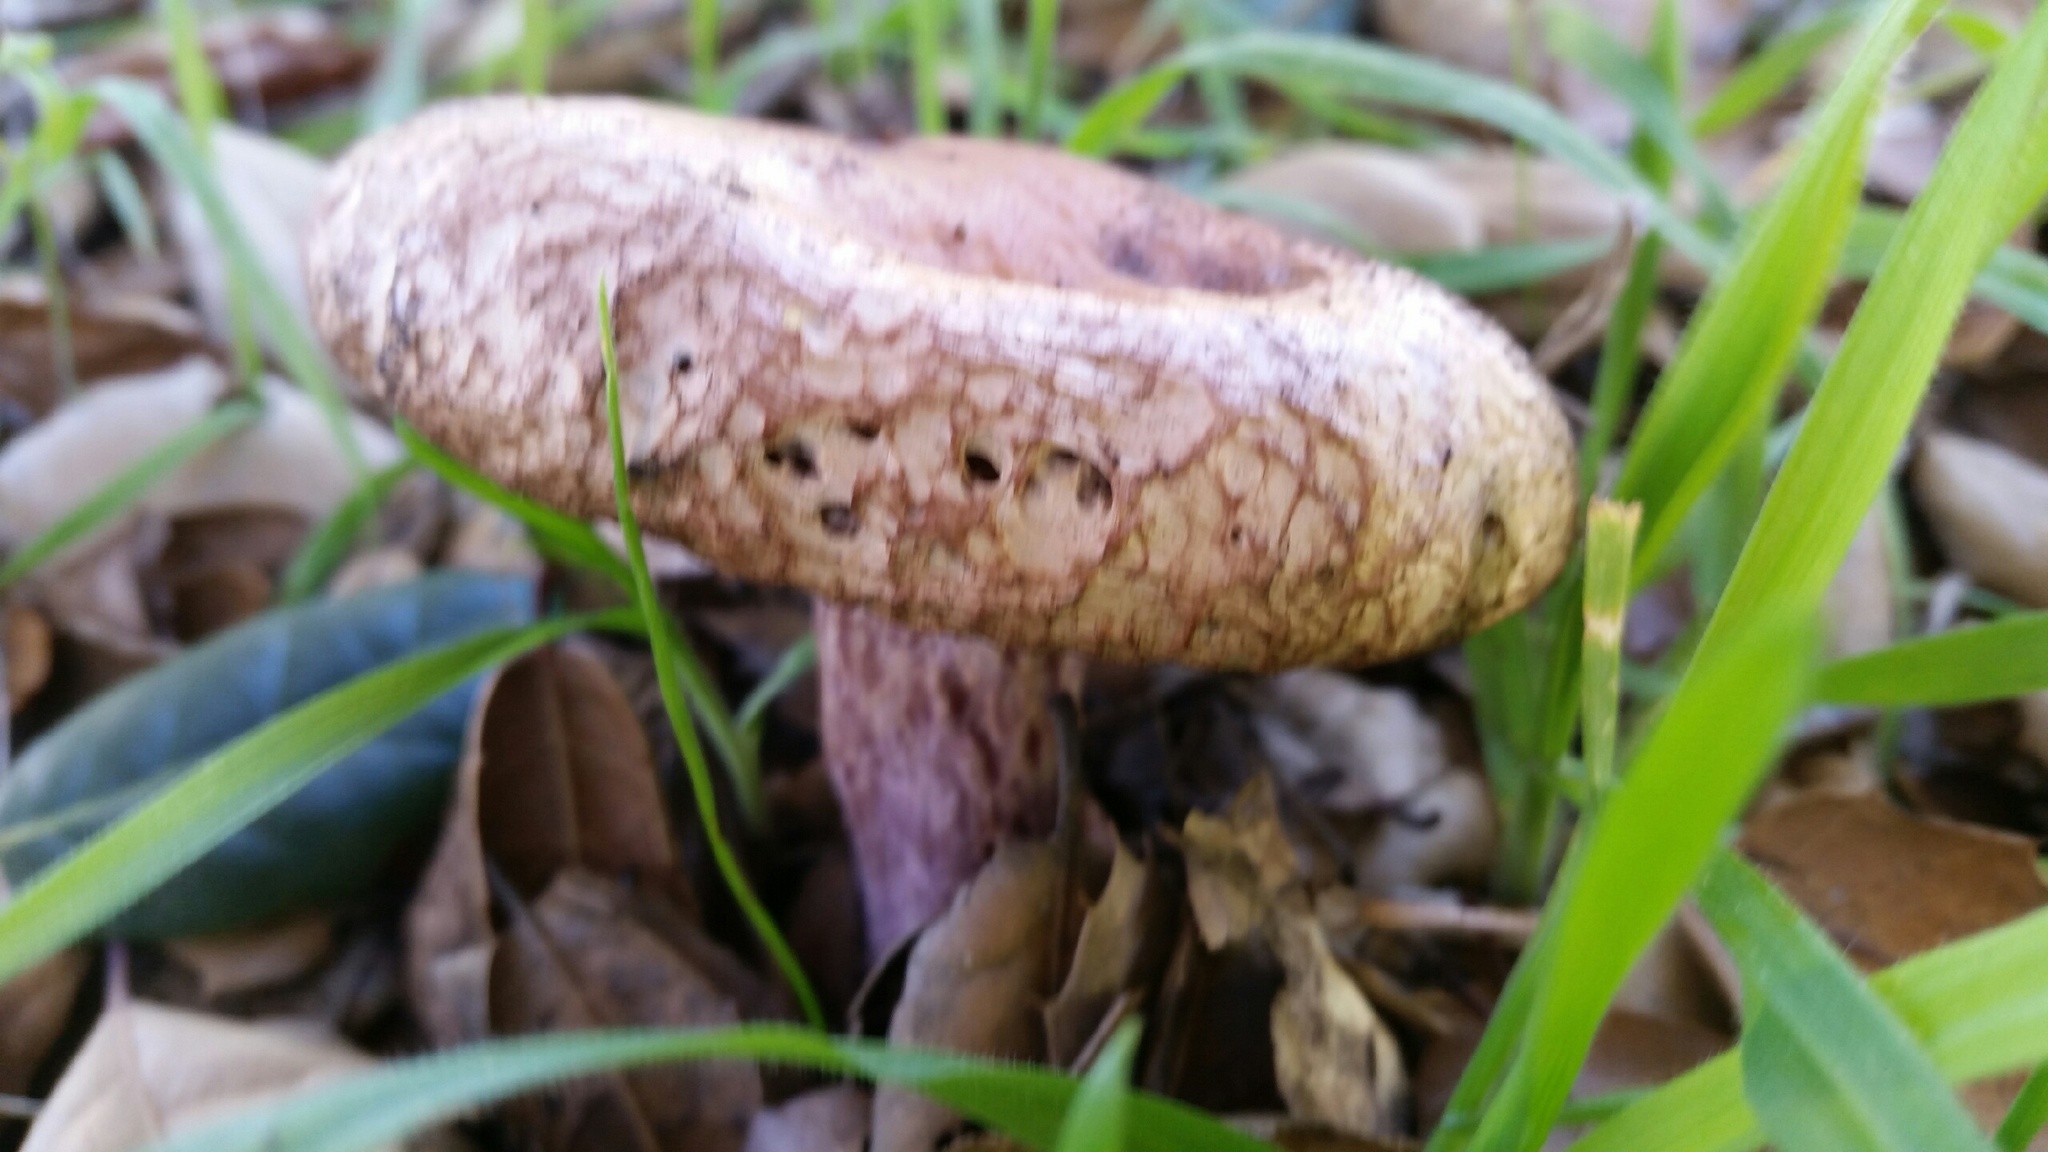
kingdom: Fungi
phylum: Basidiomycota
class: Agaricomycetes
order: Agaricales
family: Hydnangiaceae
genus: Laccaria
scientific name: Laccaria amethysteo-occidentalis
